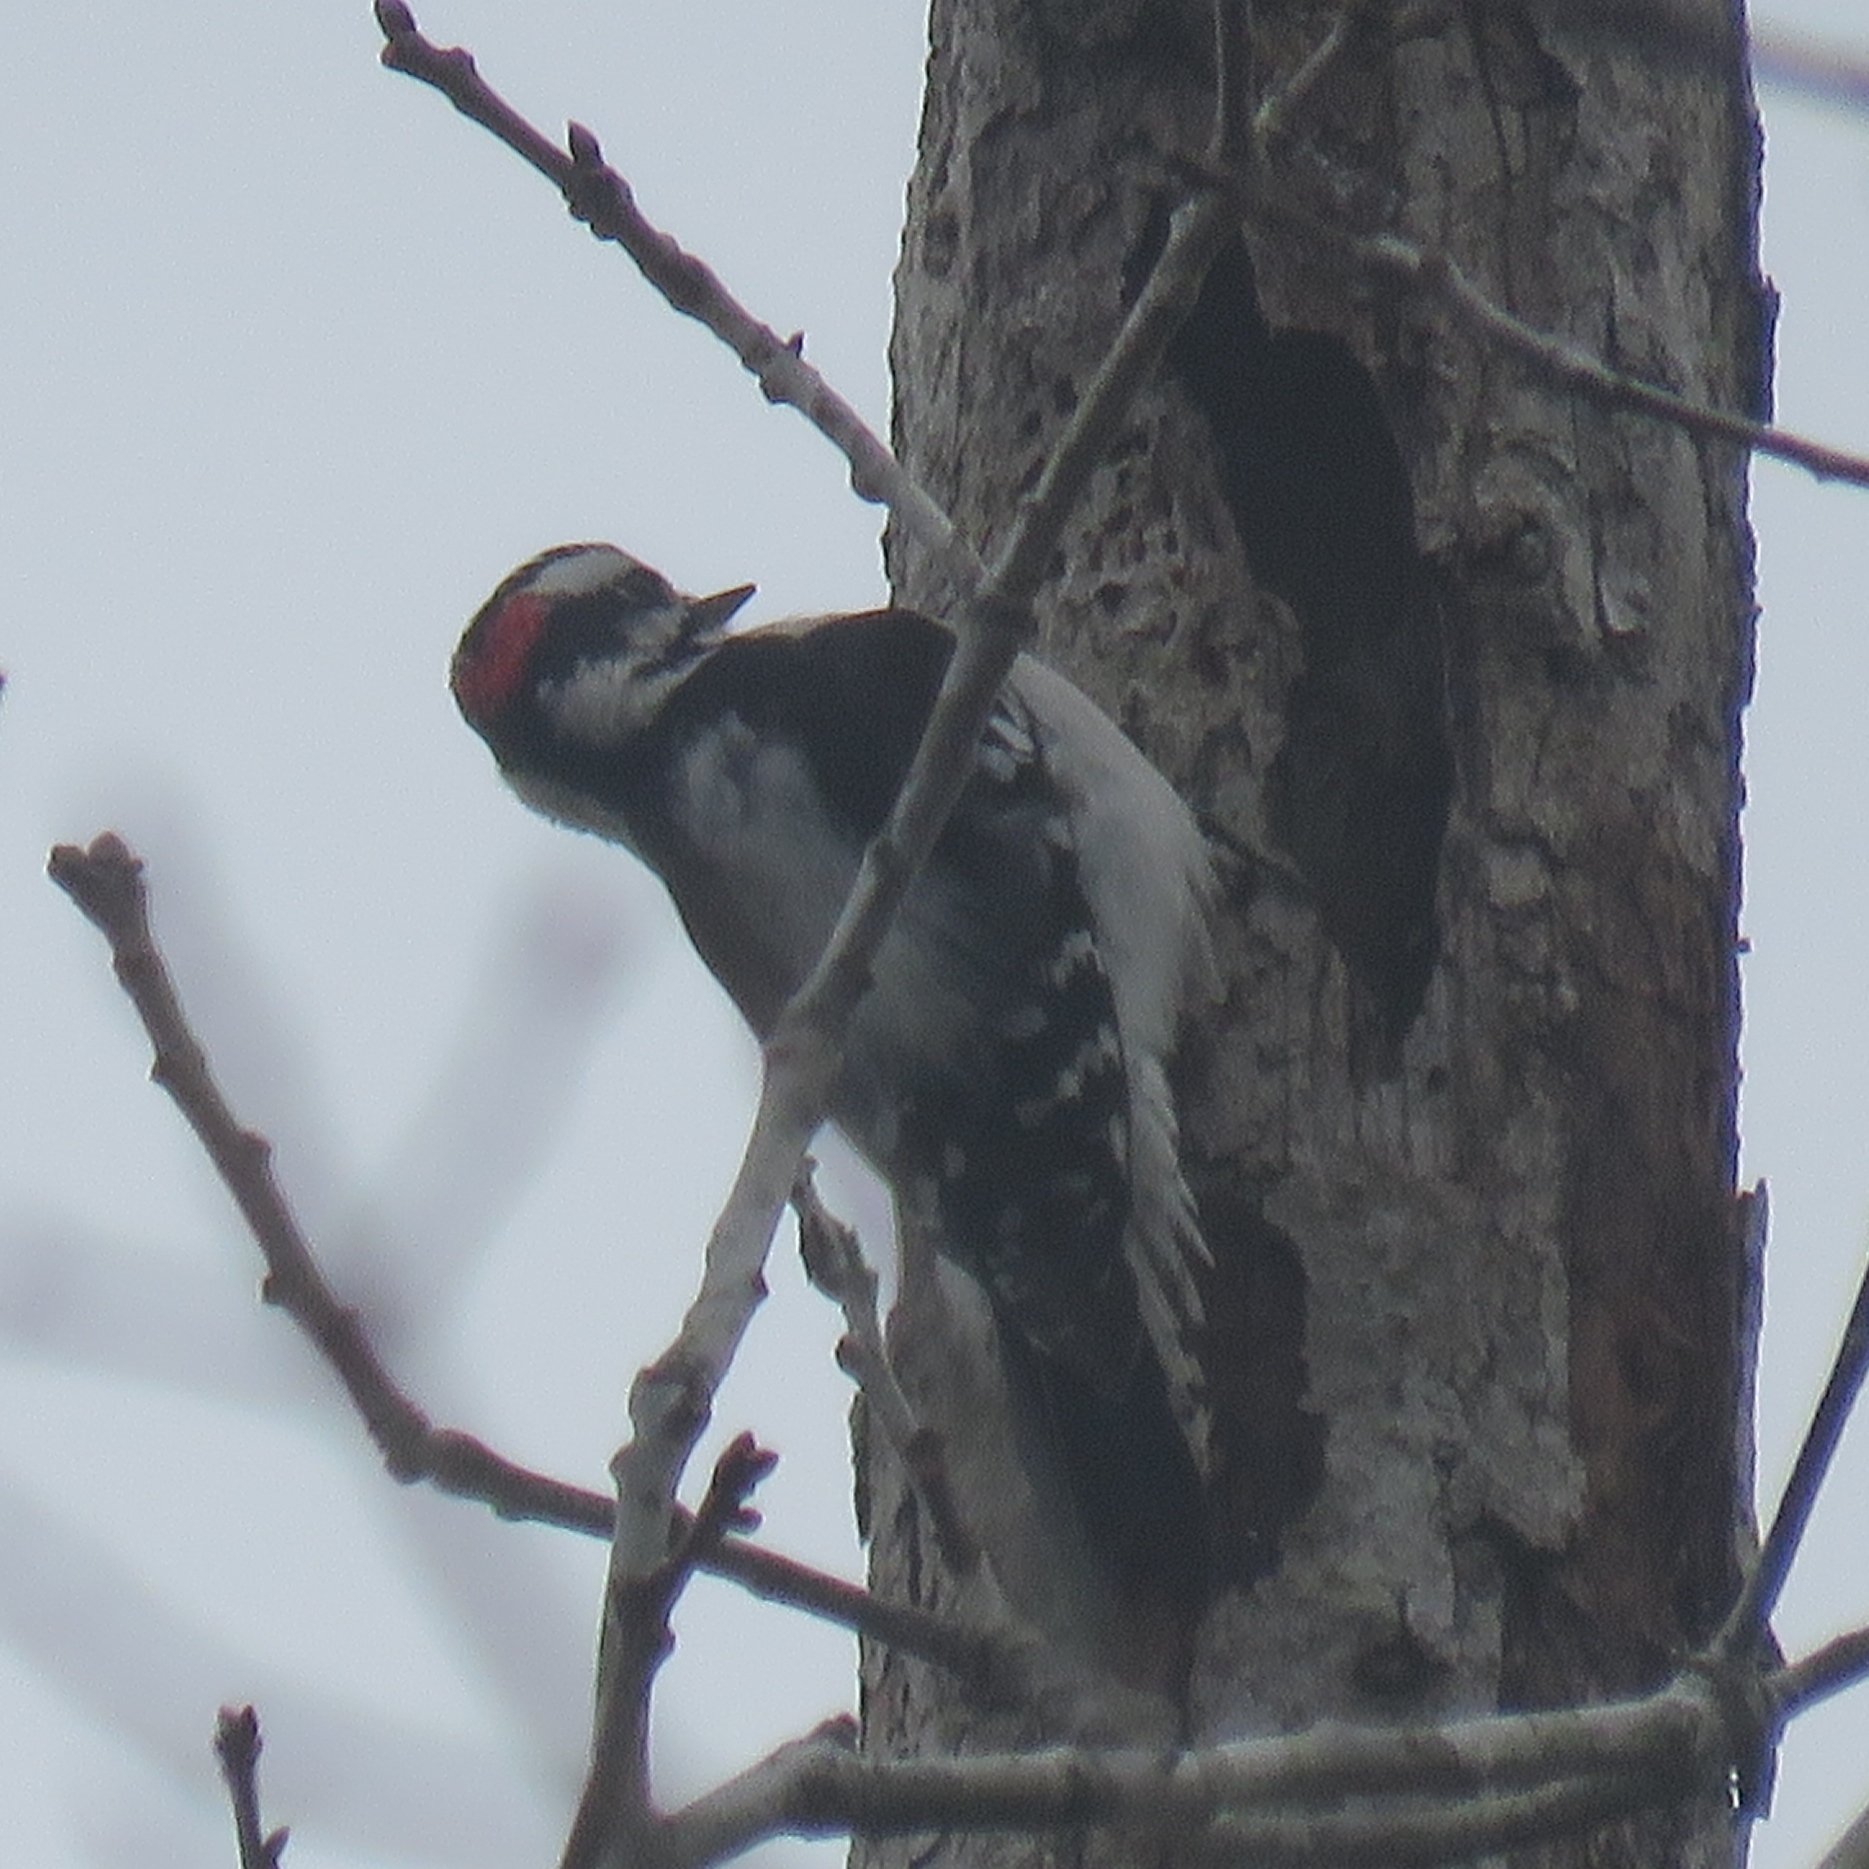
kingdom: Animalia
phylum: Chordata
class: Aves
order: Piciformes
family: Picidae
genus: Dryobates
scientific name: Dryobates pubescens
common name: Downy woodpecker
